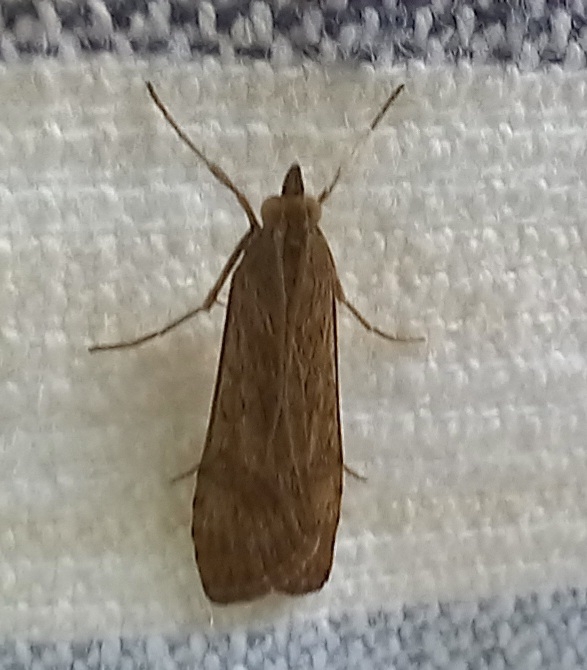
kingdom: Animalia
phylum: Arthropoda
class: Insecta
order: Lepidoptera
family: Crambidae
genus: Nomophila
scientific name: Nomophila noctuella
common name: Rush veneer
